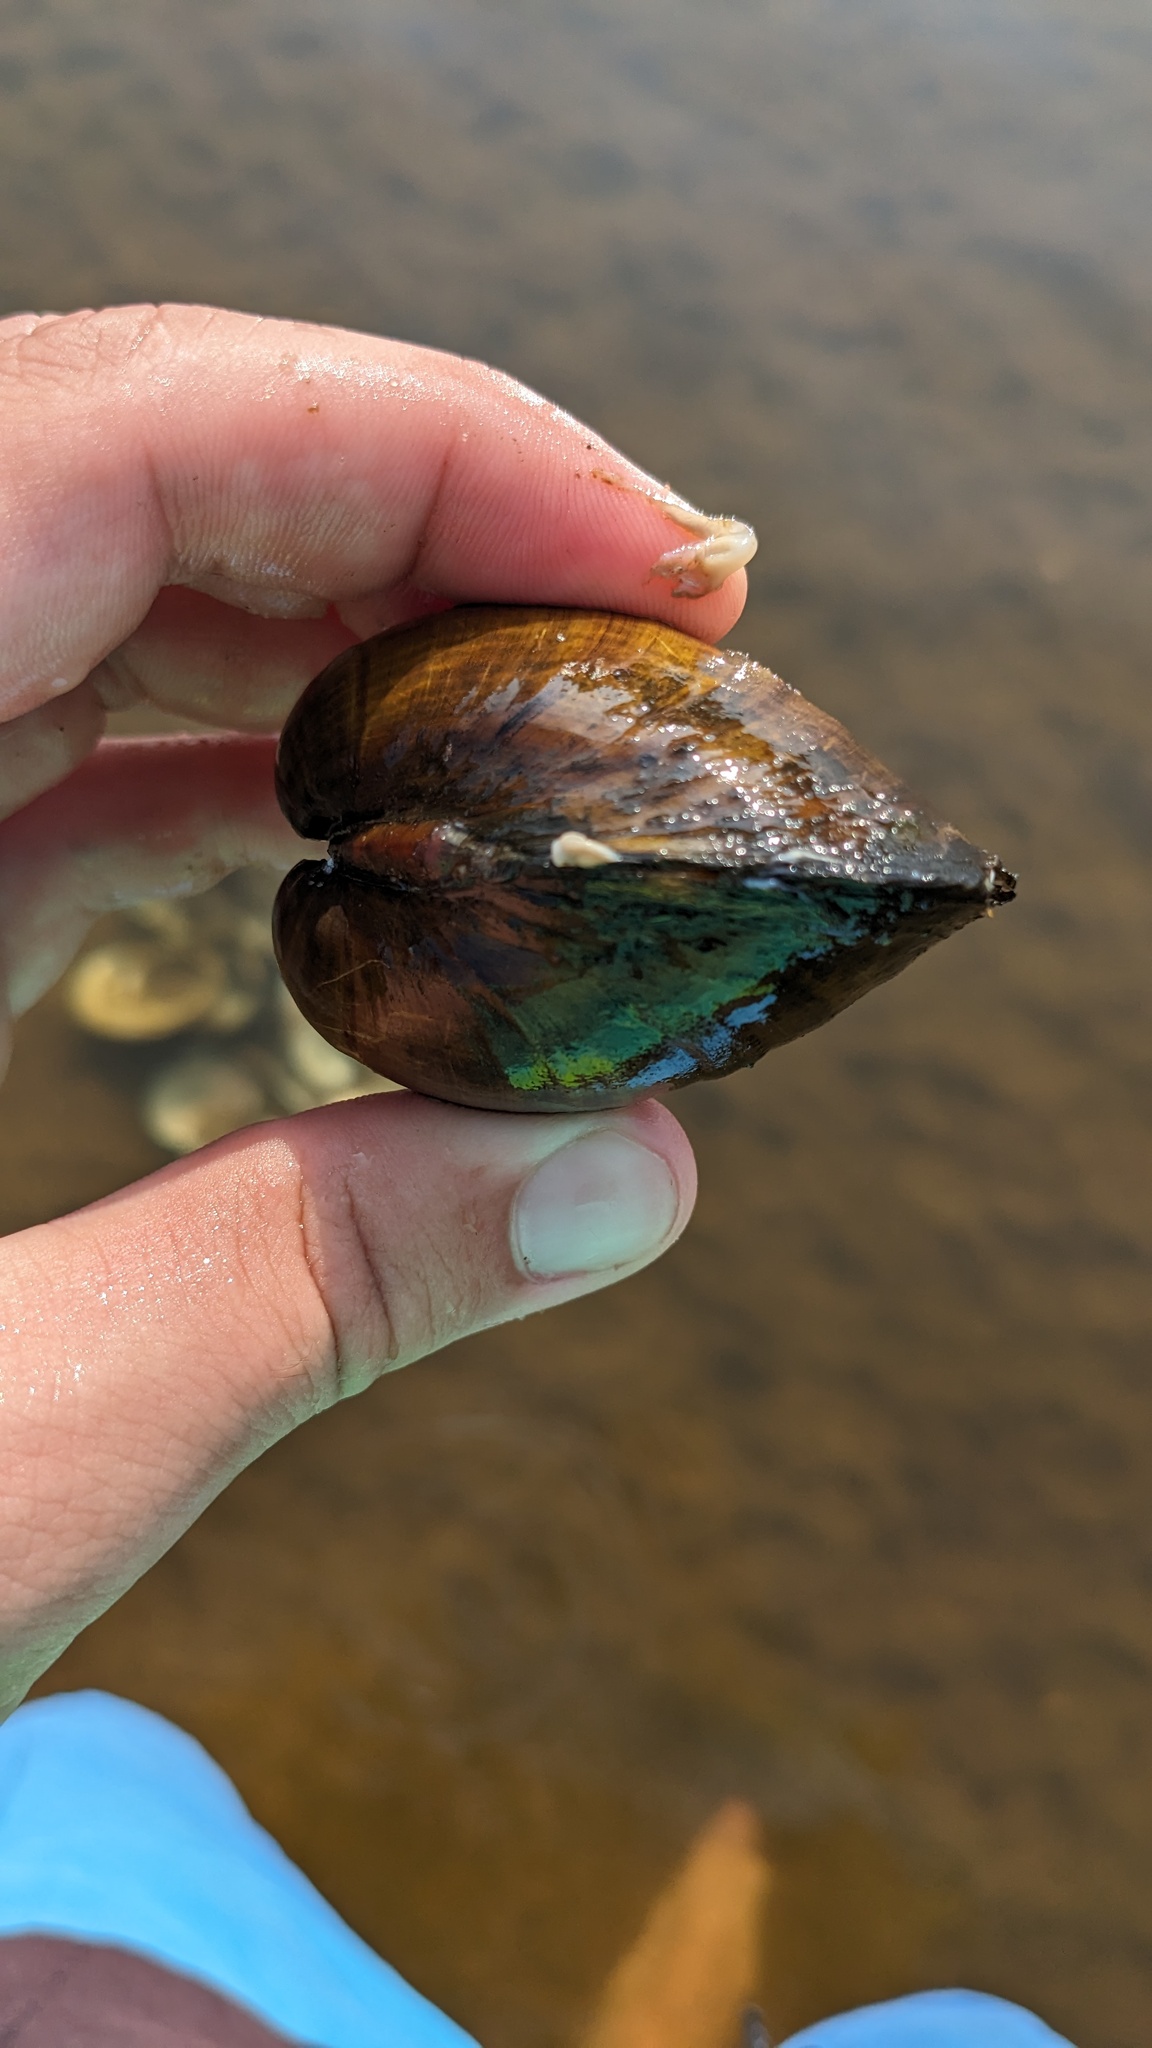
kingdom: Animalia
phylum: Mollusca
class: Bivalvia
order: Unionida
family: Unionidae
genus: Obovaria
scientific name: Obovaria olivaria
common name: Hickorynut
